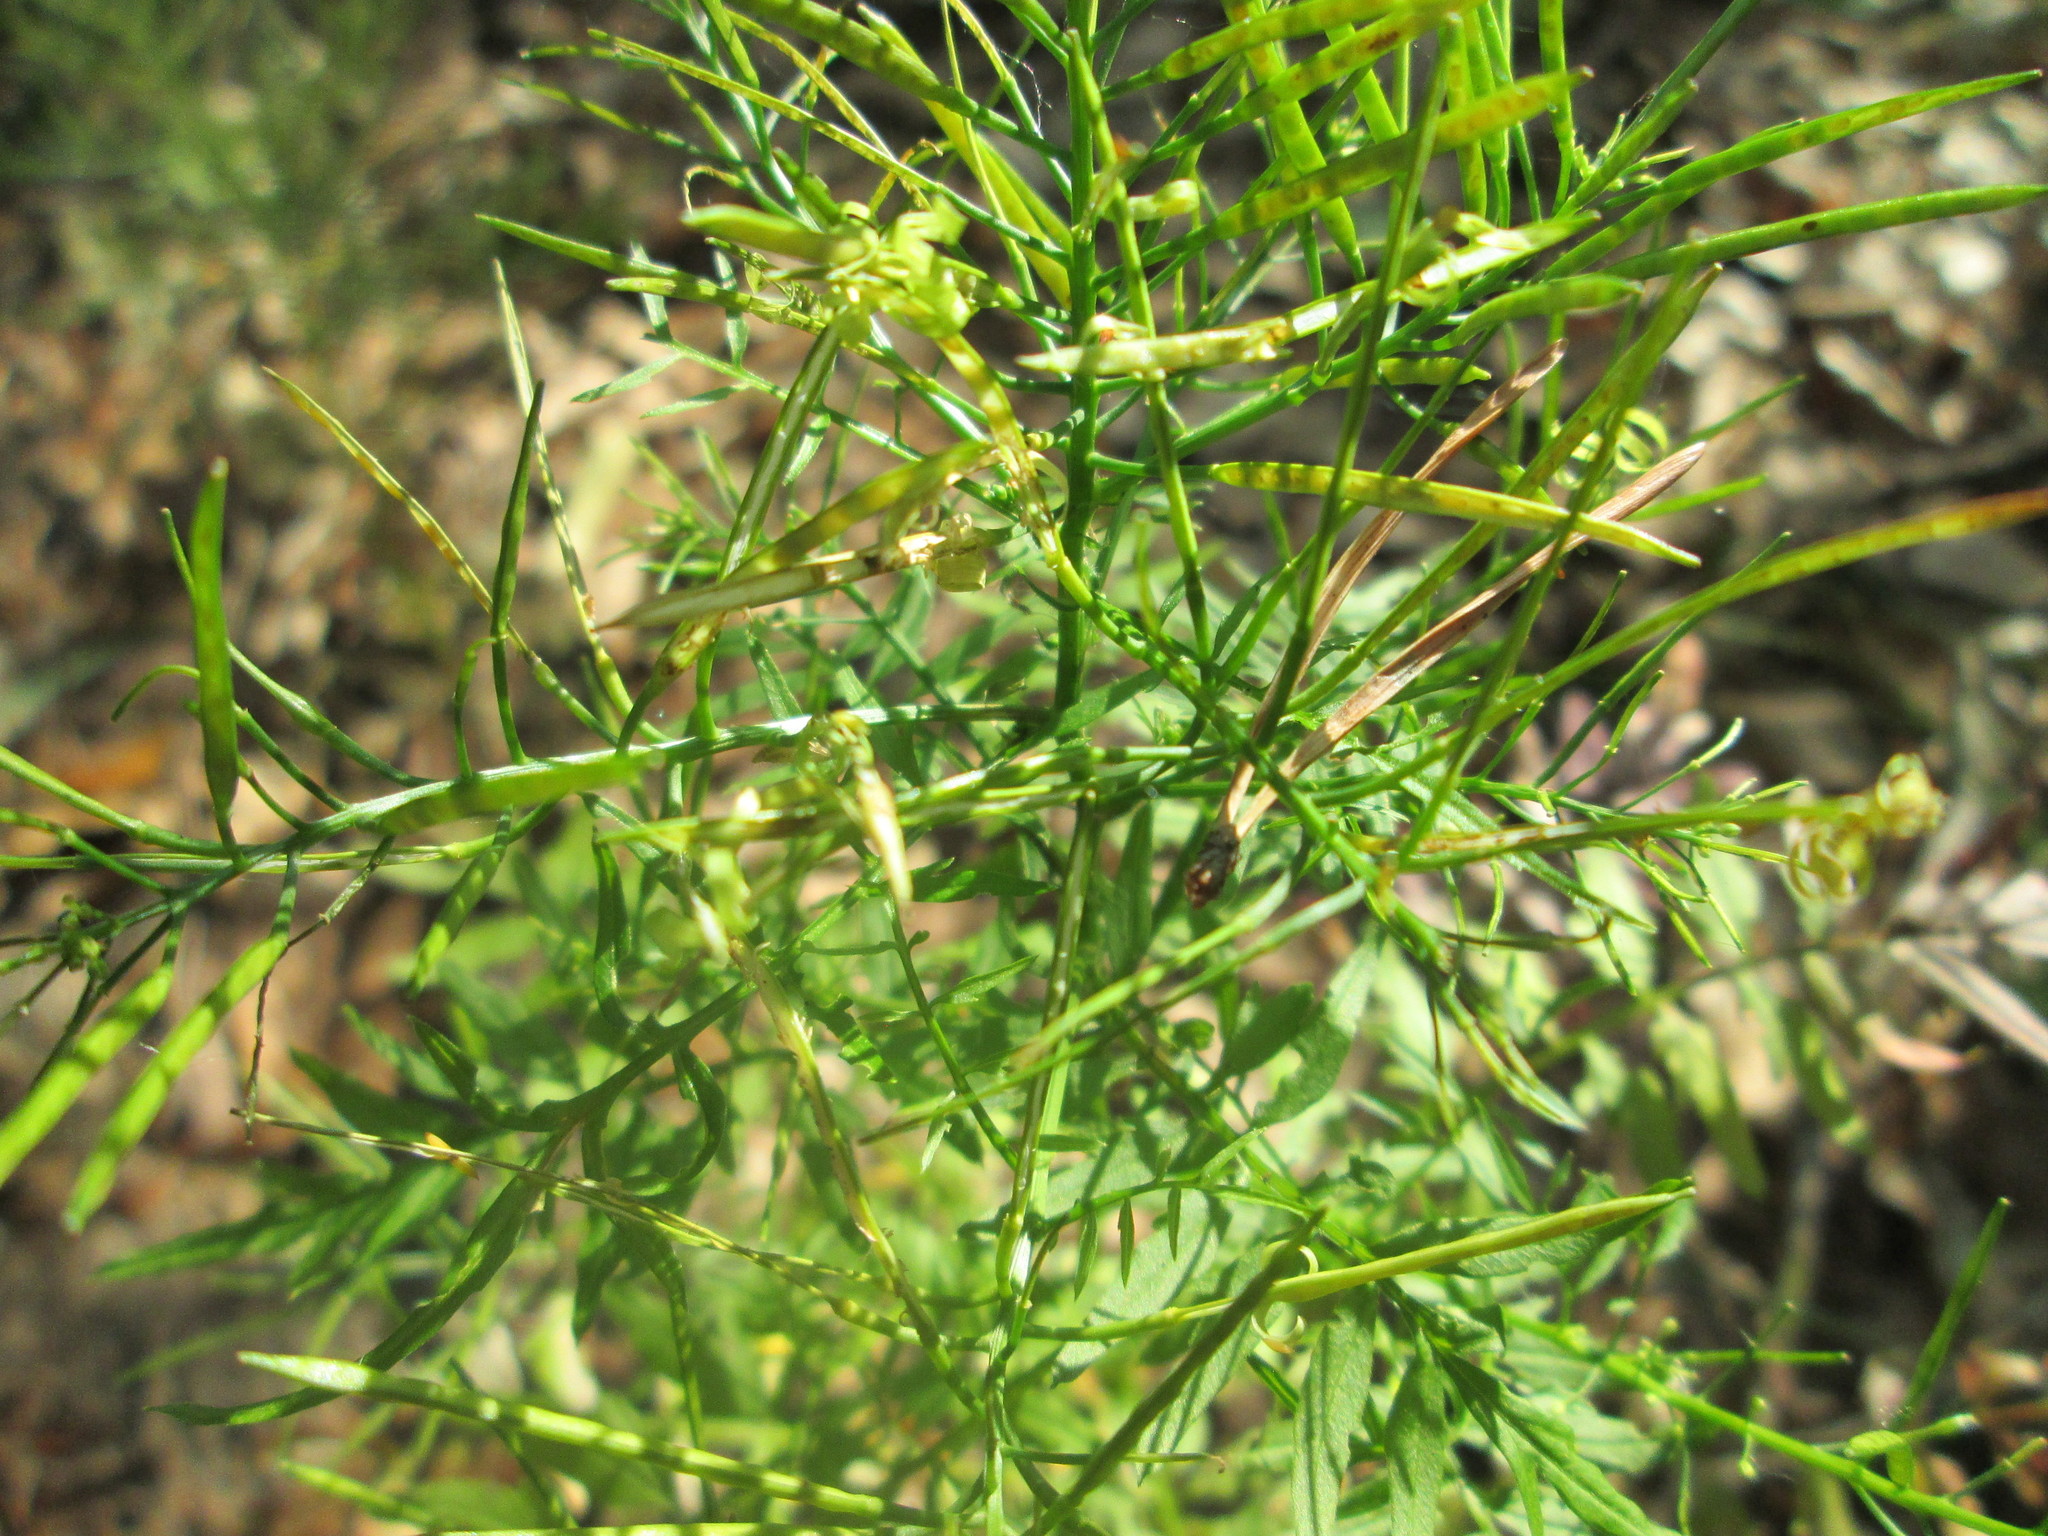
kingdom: Plantae
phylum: Tracheophyta
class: Magnoliopsida
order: Brassicales
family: Brassicaceae
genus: Cardamine
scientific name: Cardamine impatiens
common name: Narrow-leaved bitter-cress
